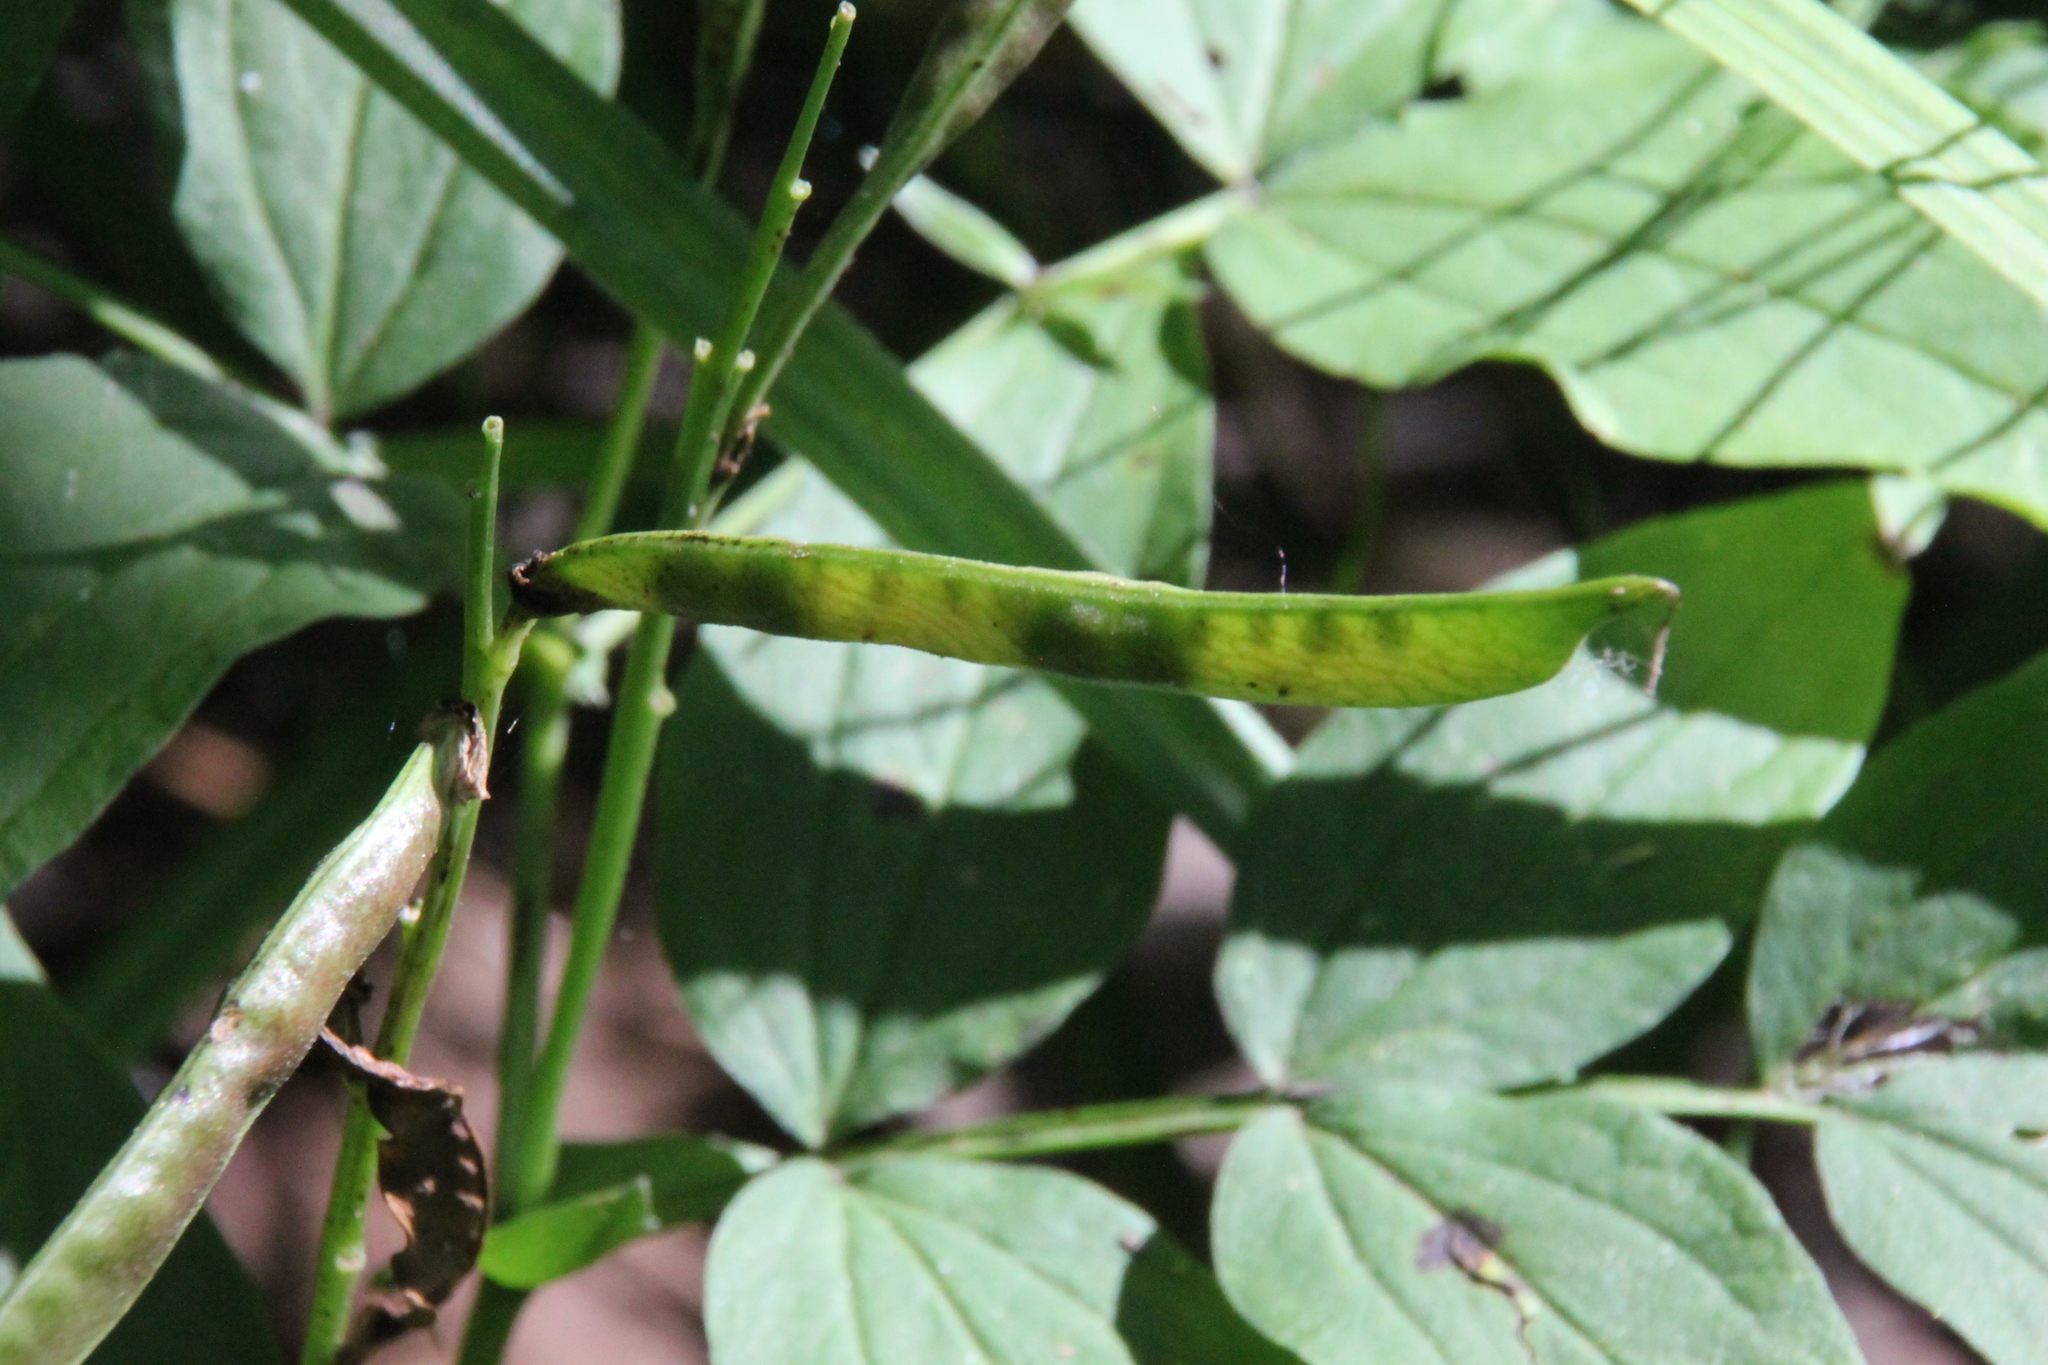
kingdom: Plantae
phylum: Tracheophyta
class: Magnoliopsida
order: Fabales
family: Fabaceae
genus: Lathyrus
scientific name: Lathyrus vernus
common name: Spring pea
